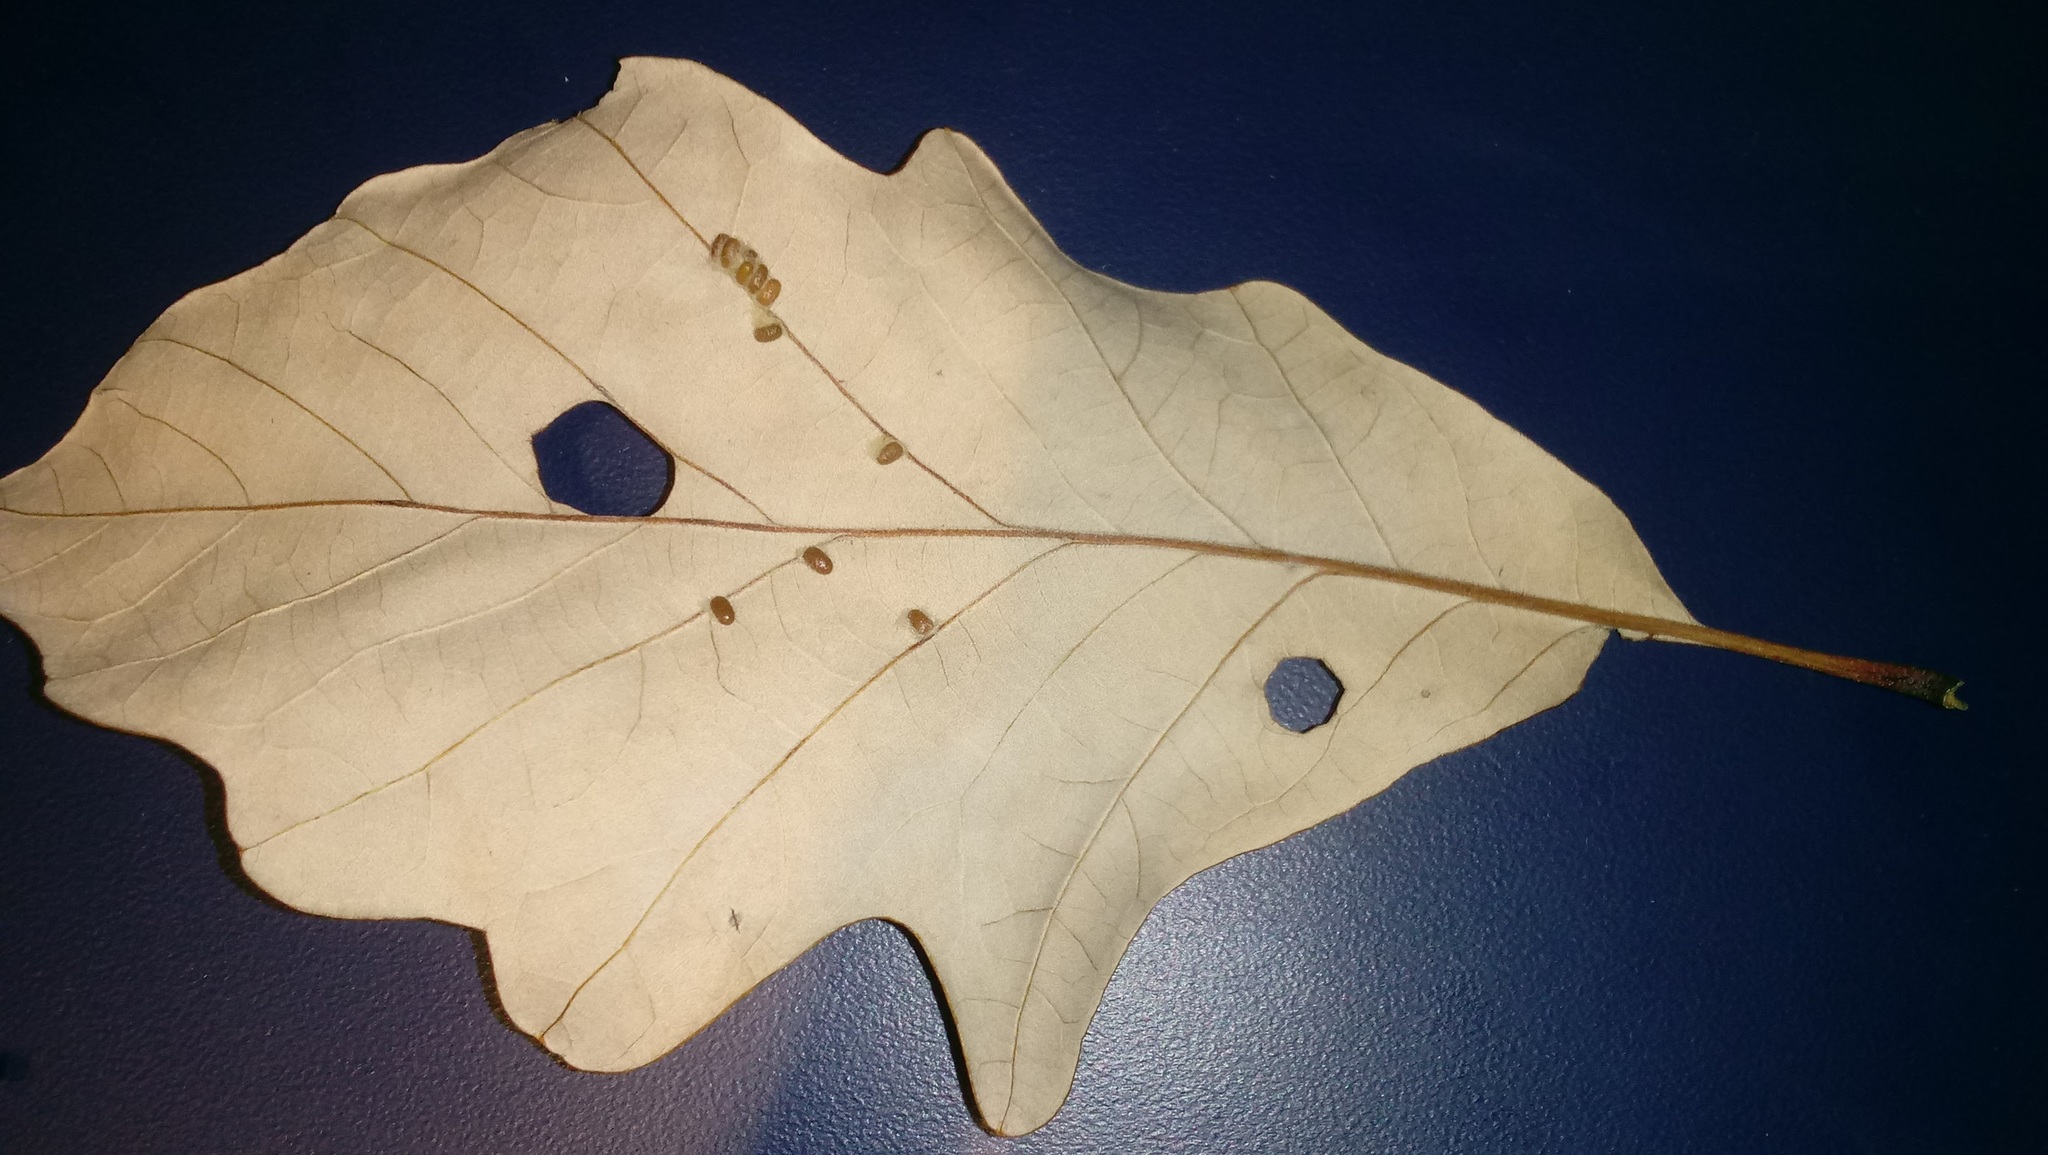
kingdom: Animalia
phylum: Arthropoda
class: Insecta
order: Hymenoptera
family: Cynipidae
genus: Andricus
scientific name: Andricus Druon ignotum
